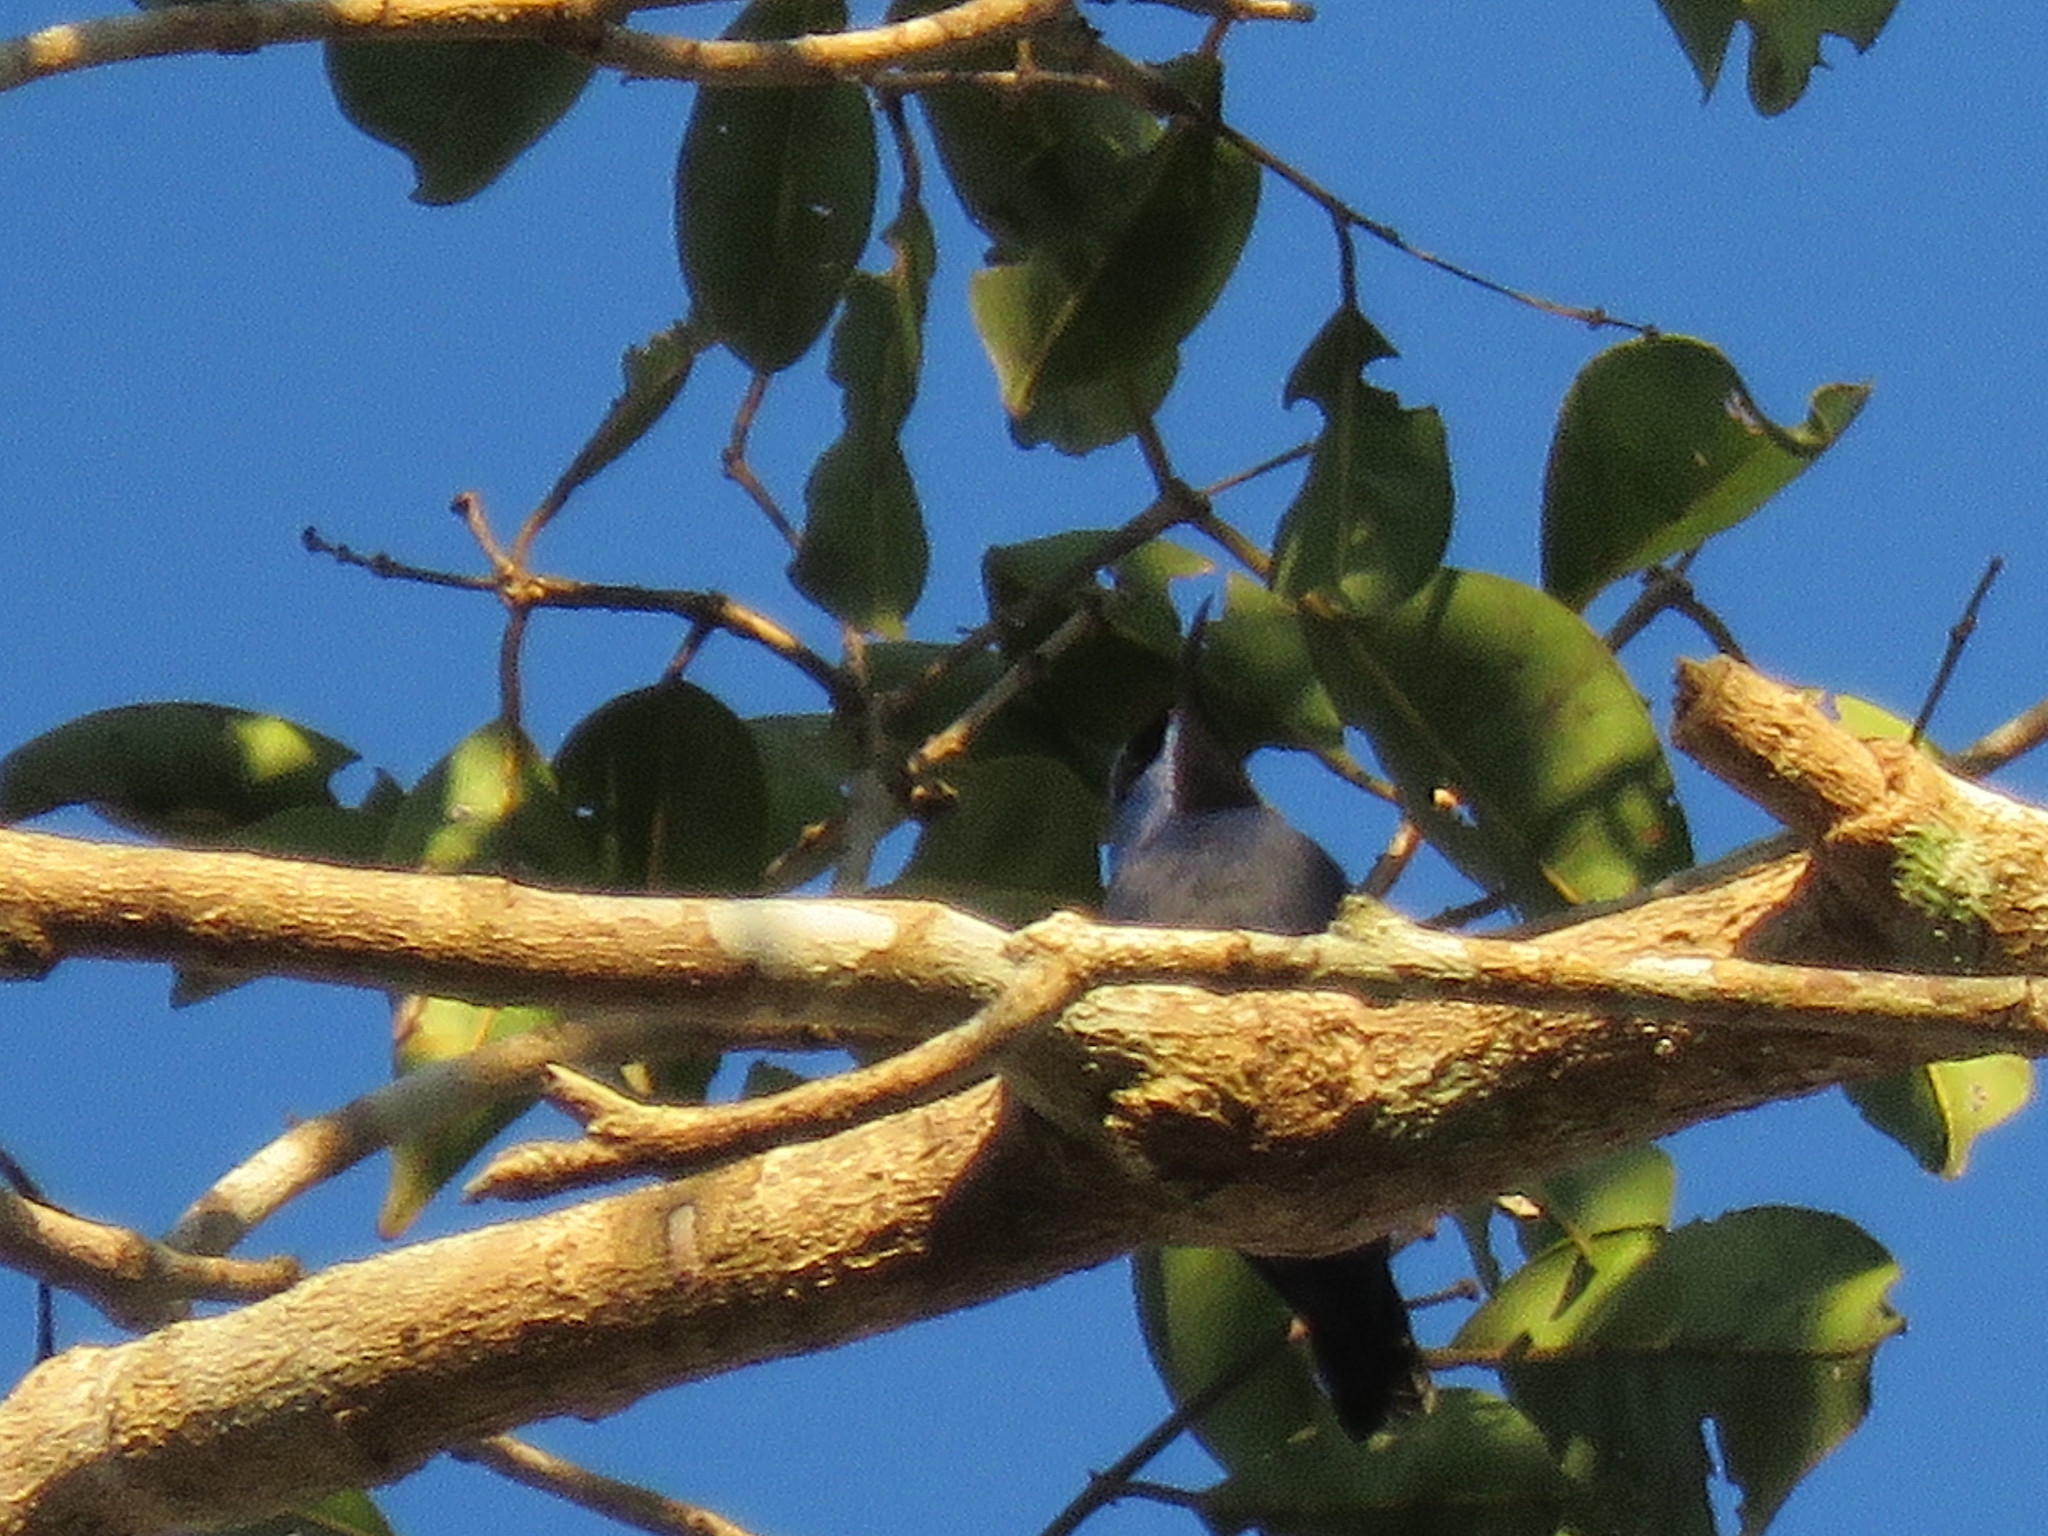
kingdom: Animalia
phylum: Chordata
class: Aves
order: Passeriformes
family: Thraupidae
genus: Cyanerpes
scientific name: Cyanerpes caeruleus
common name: Purple honeycreeper
